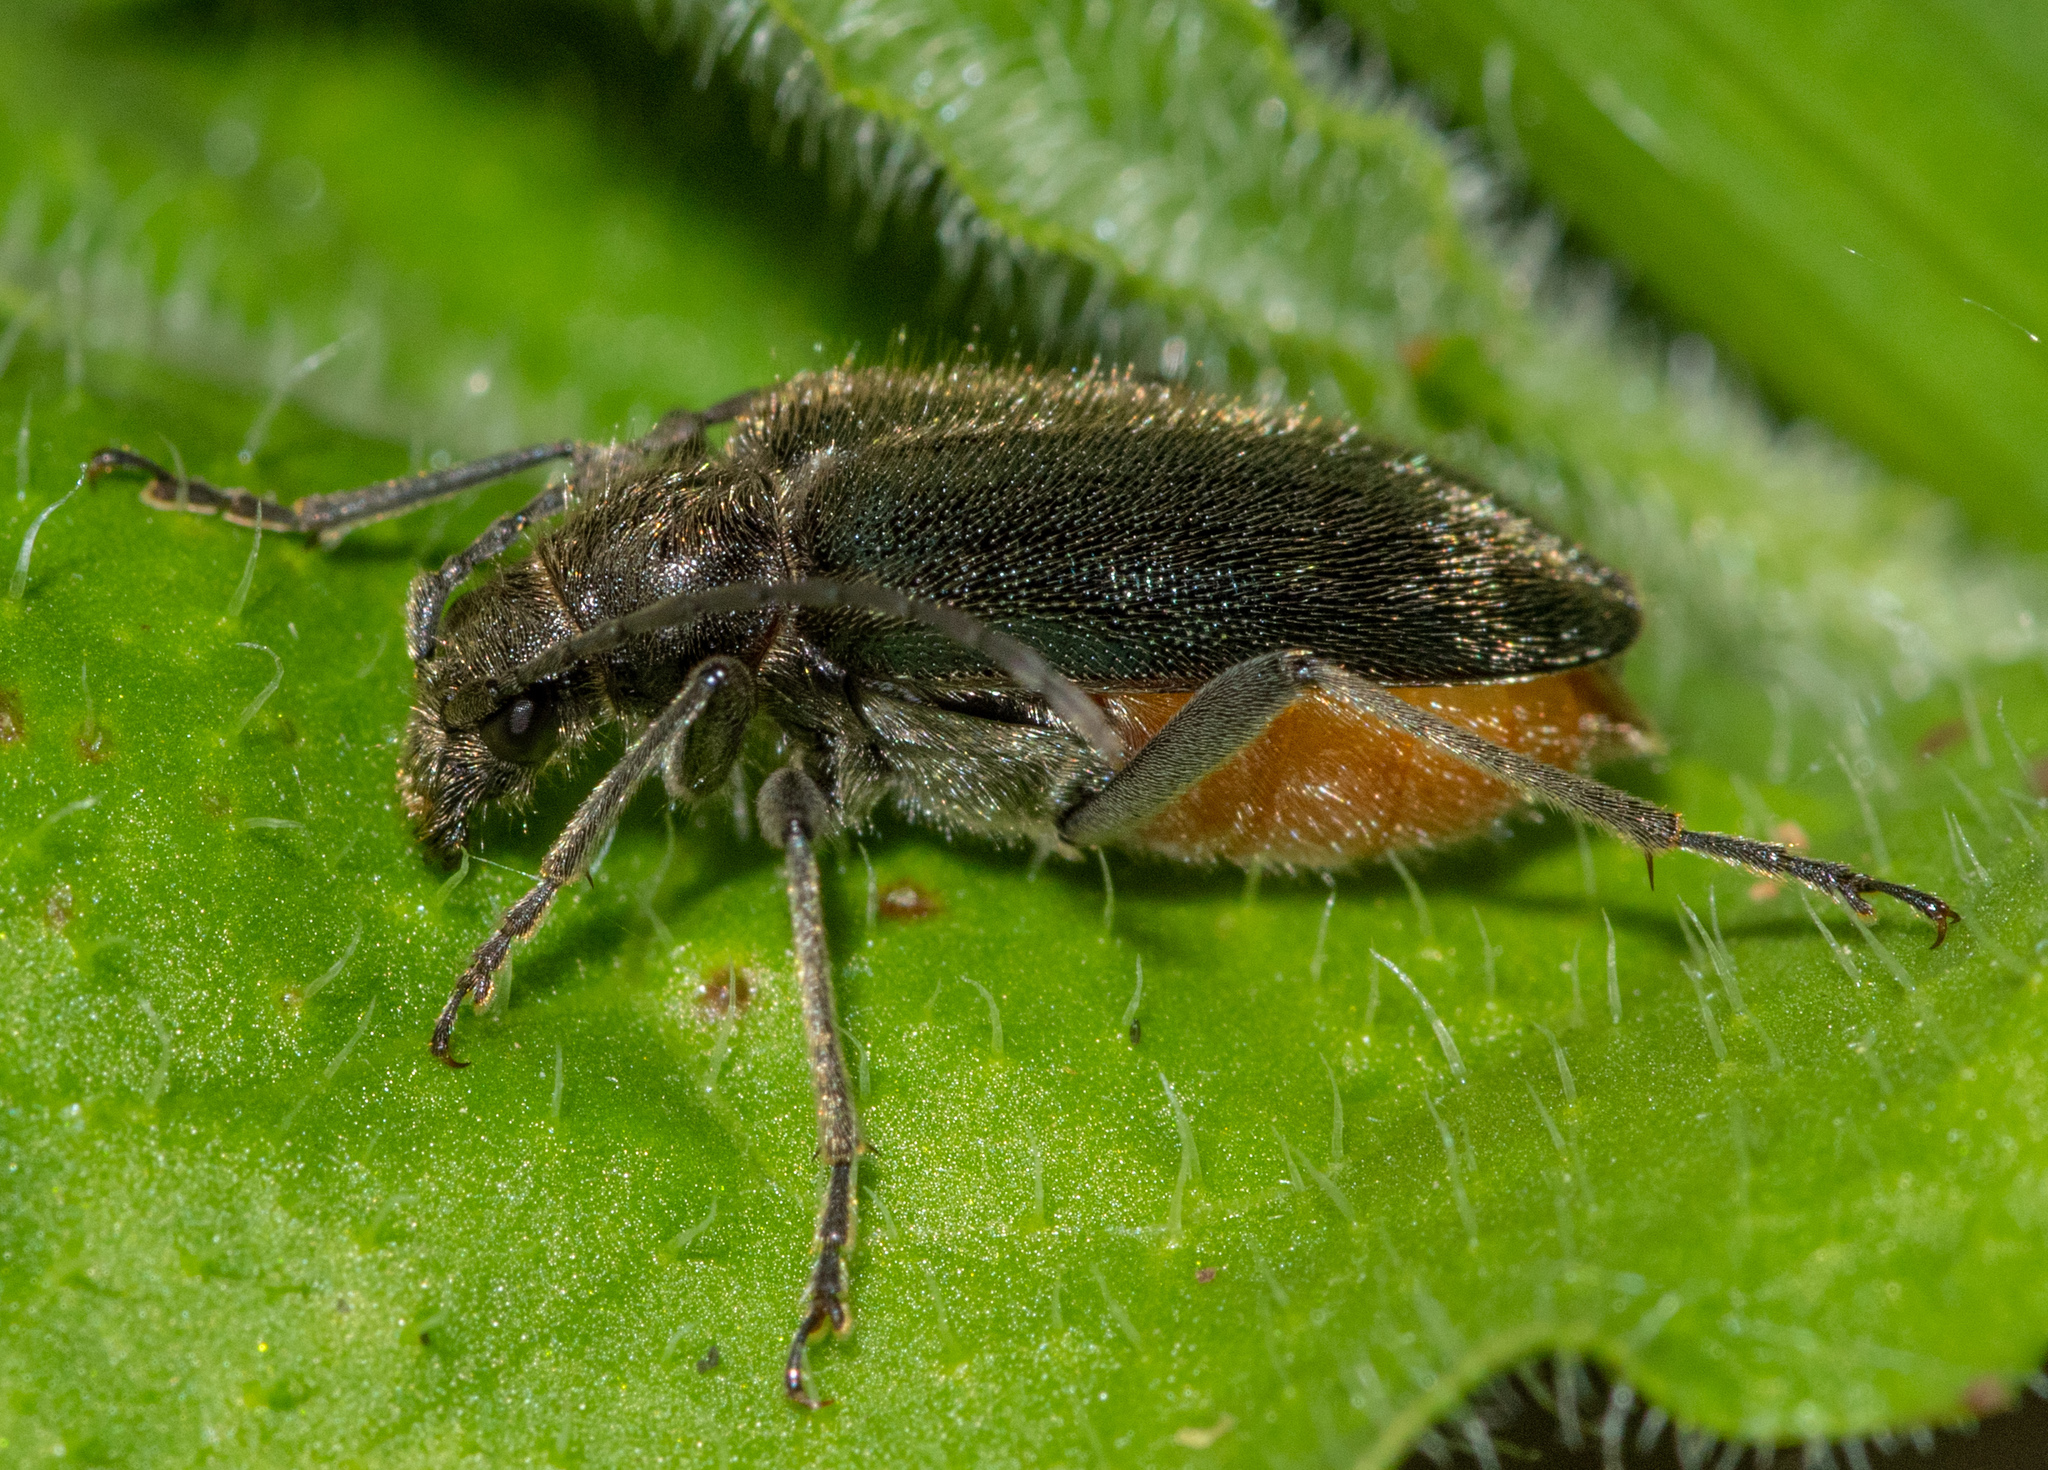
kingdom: Animalia
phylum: Arthropoda
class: Insecta
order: Coleoptera
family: Cerambycidae
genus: Brachysomida
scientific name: Brachysomida californica
